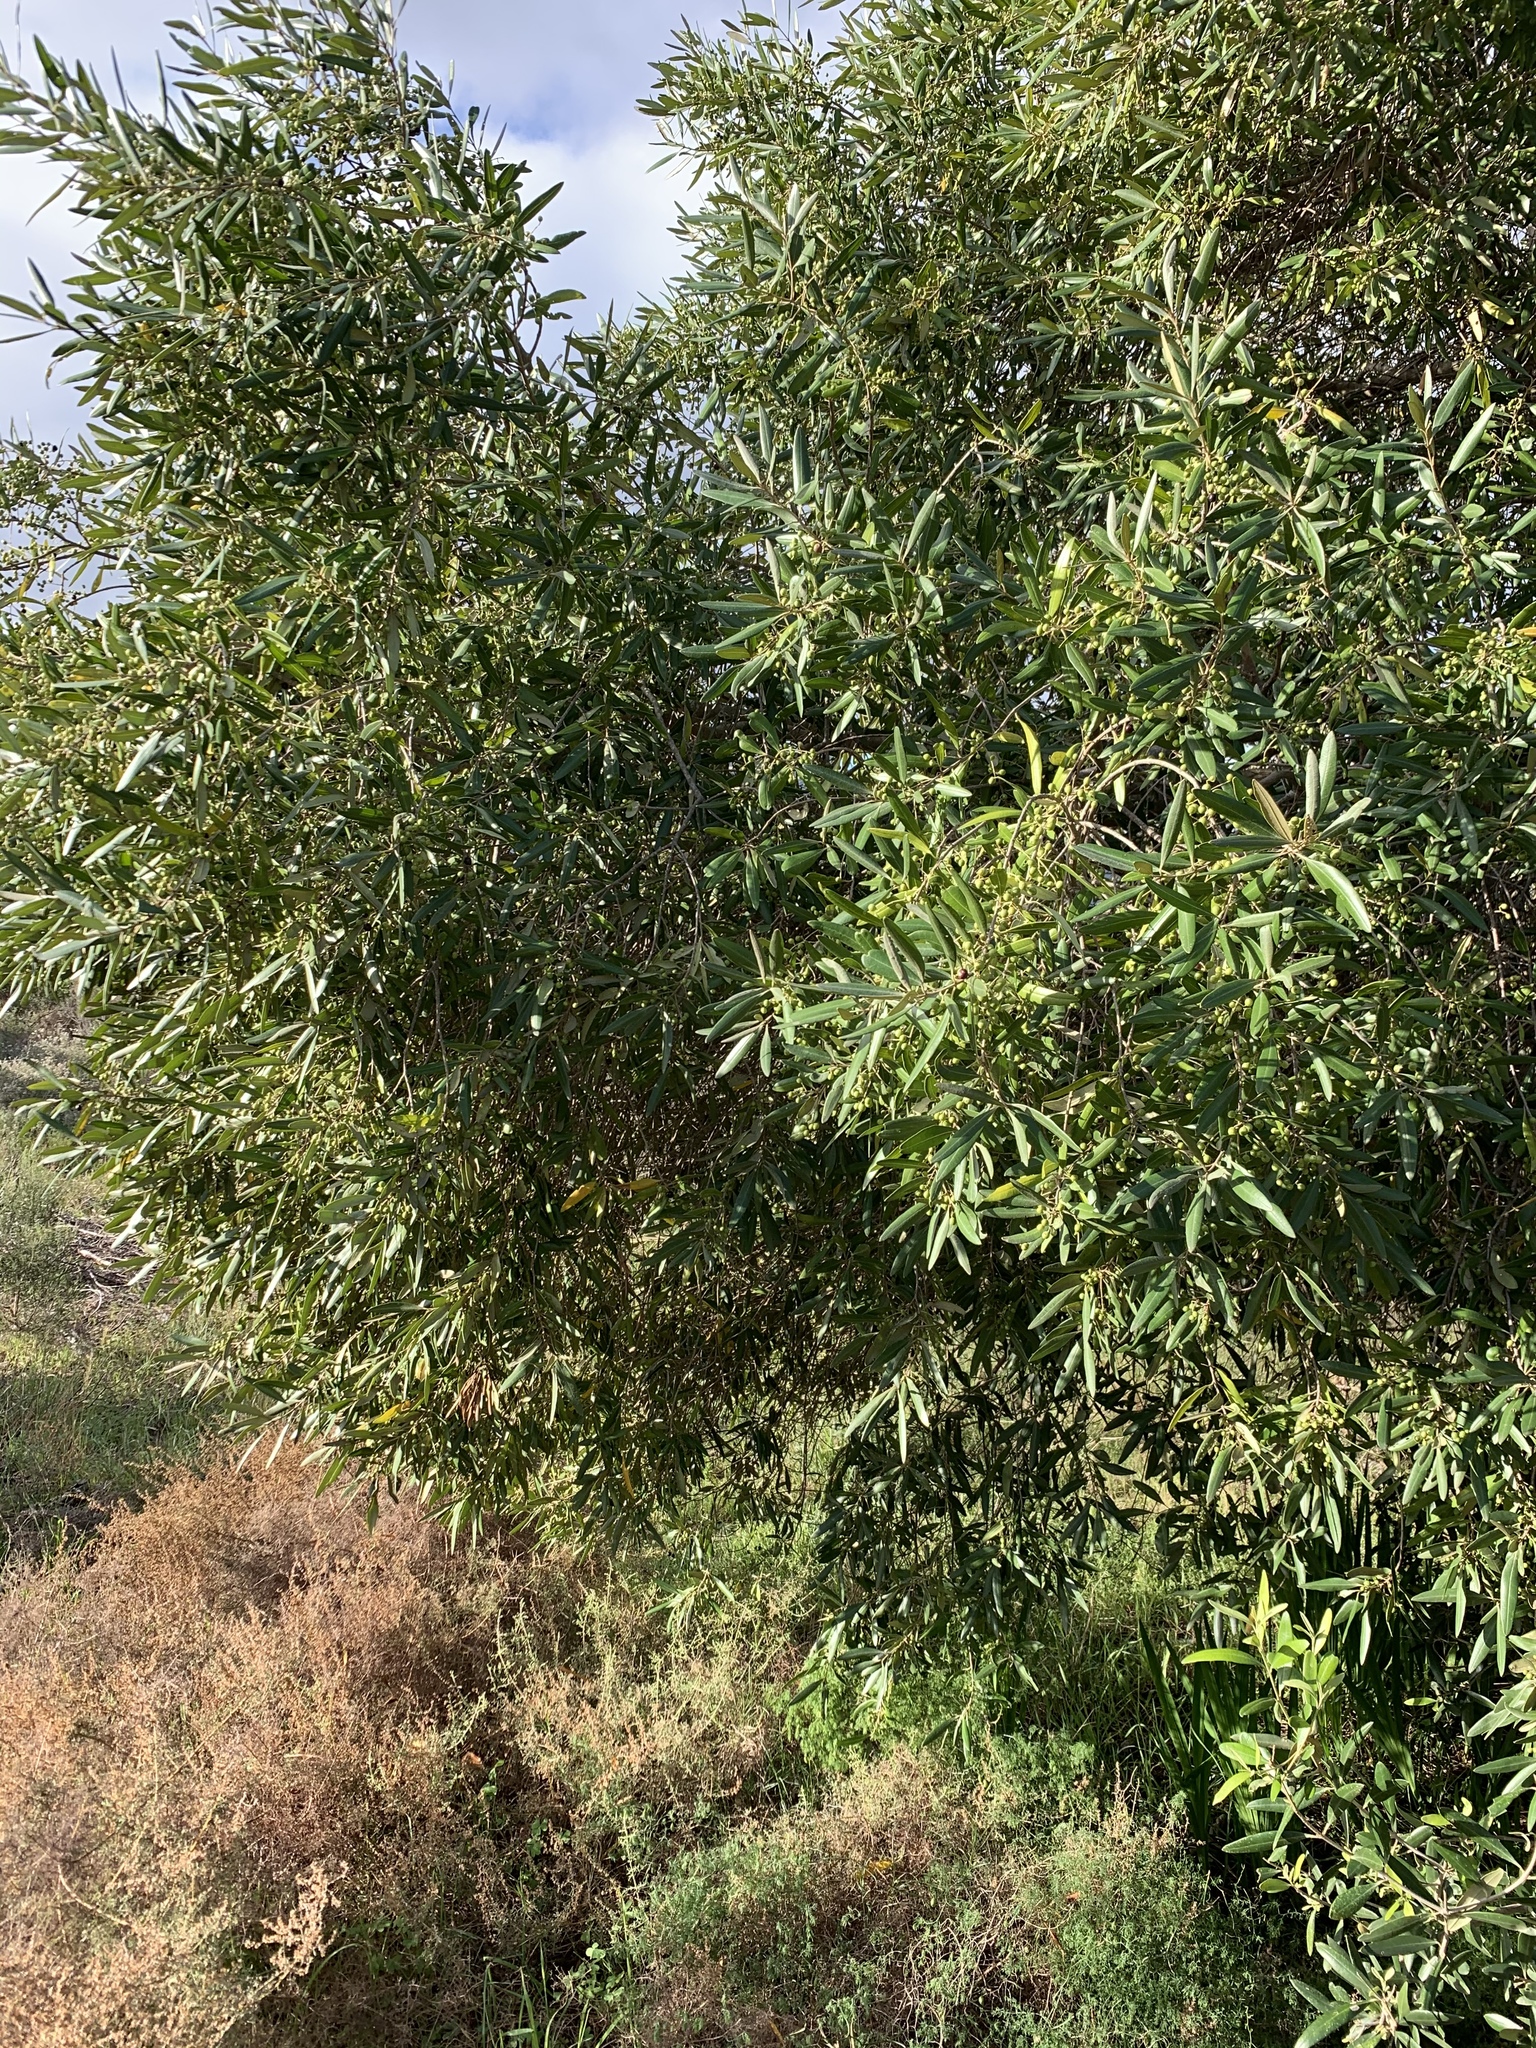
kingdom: Plantae
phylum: Tracheophyta
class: Magnoliopsida
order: Lamiales
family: Oleaceae
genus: Olea
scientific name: Olea europaea
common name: Olive
